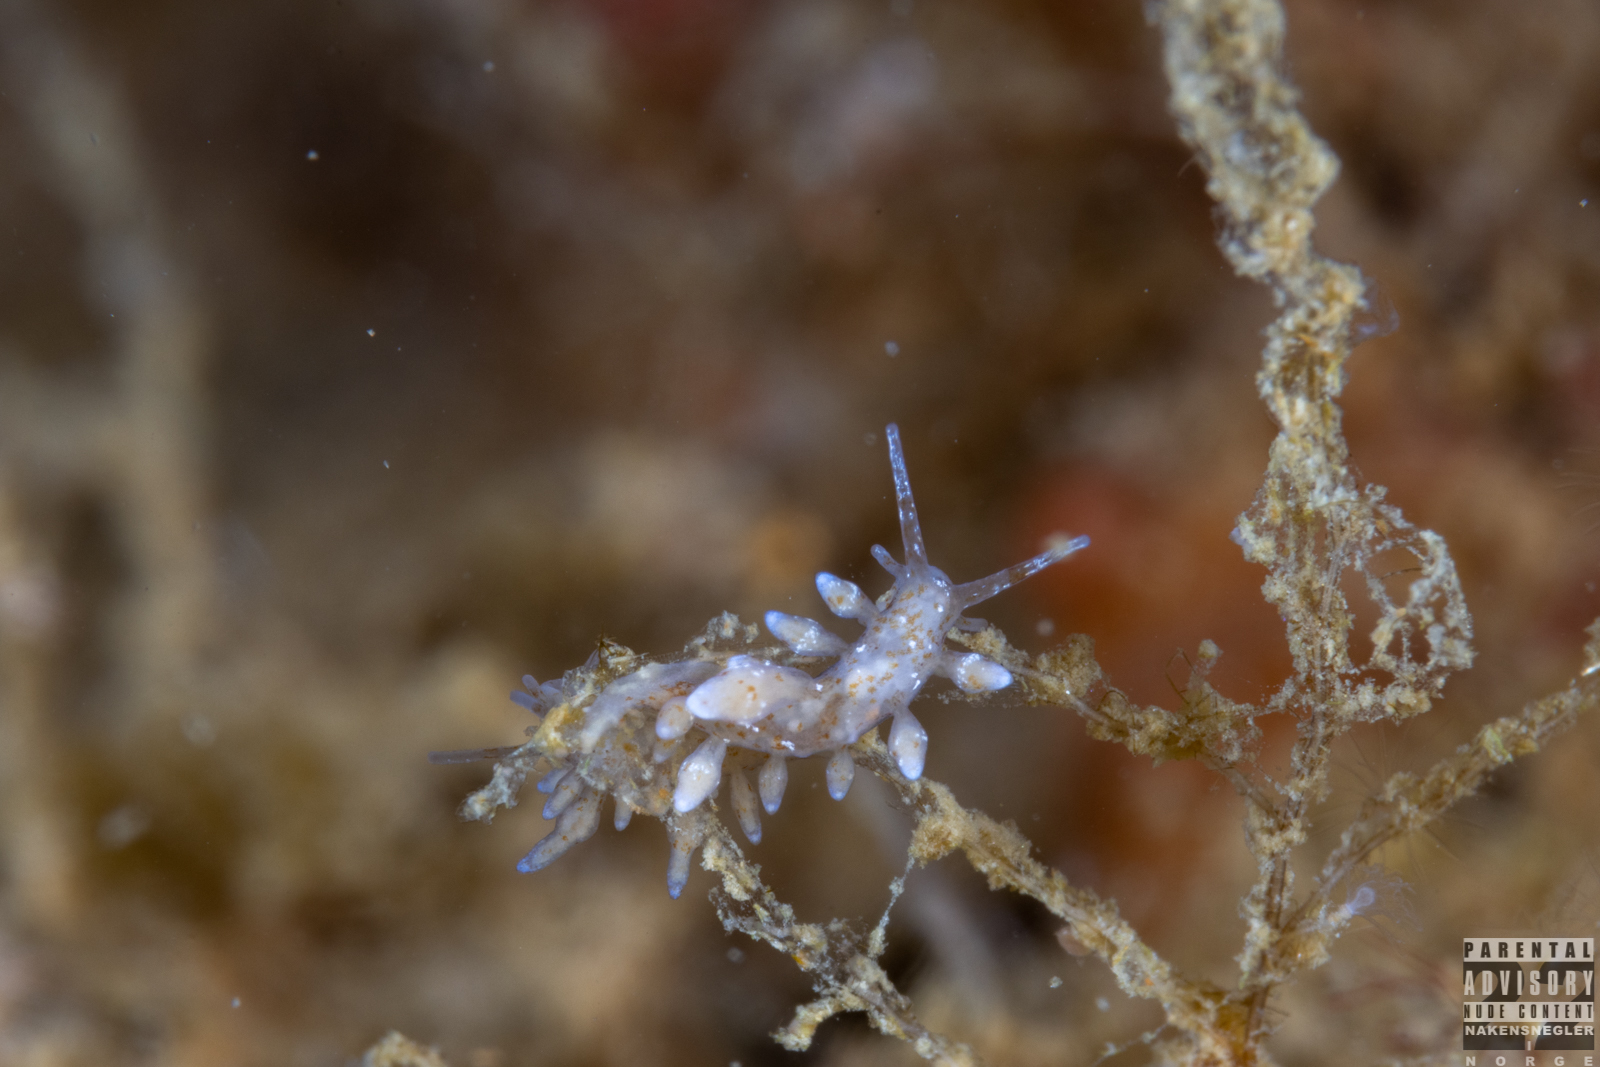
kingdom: Animalia
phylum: Mollusca
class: Gastropoda
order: Nudibranchia
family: Eubranchidae
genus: Eubranchus
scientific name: Eubranchus rupium
